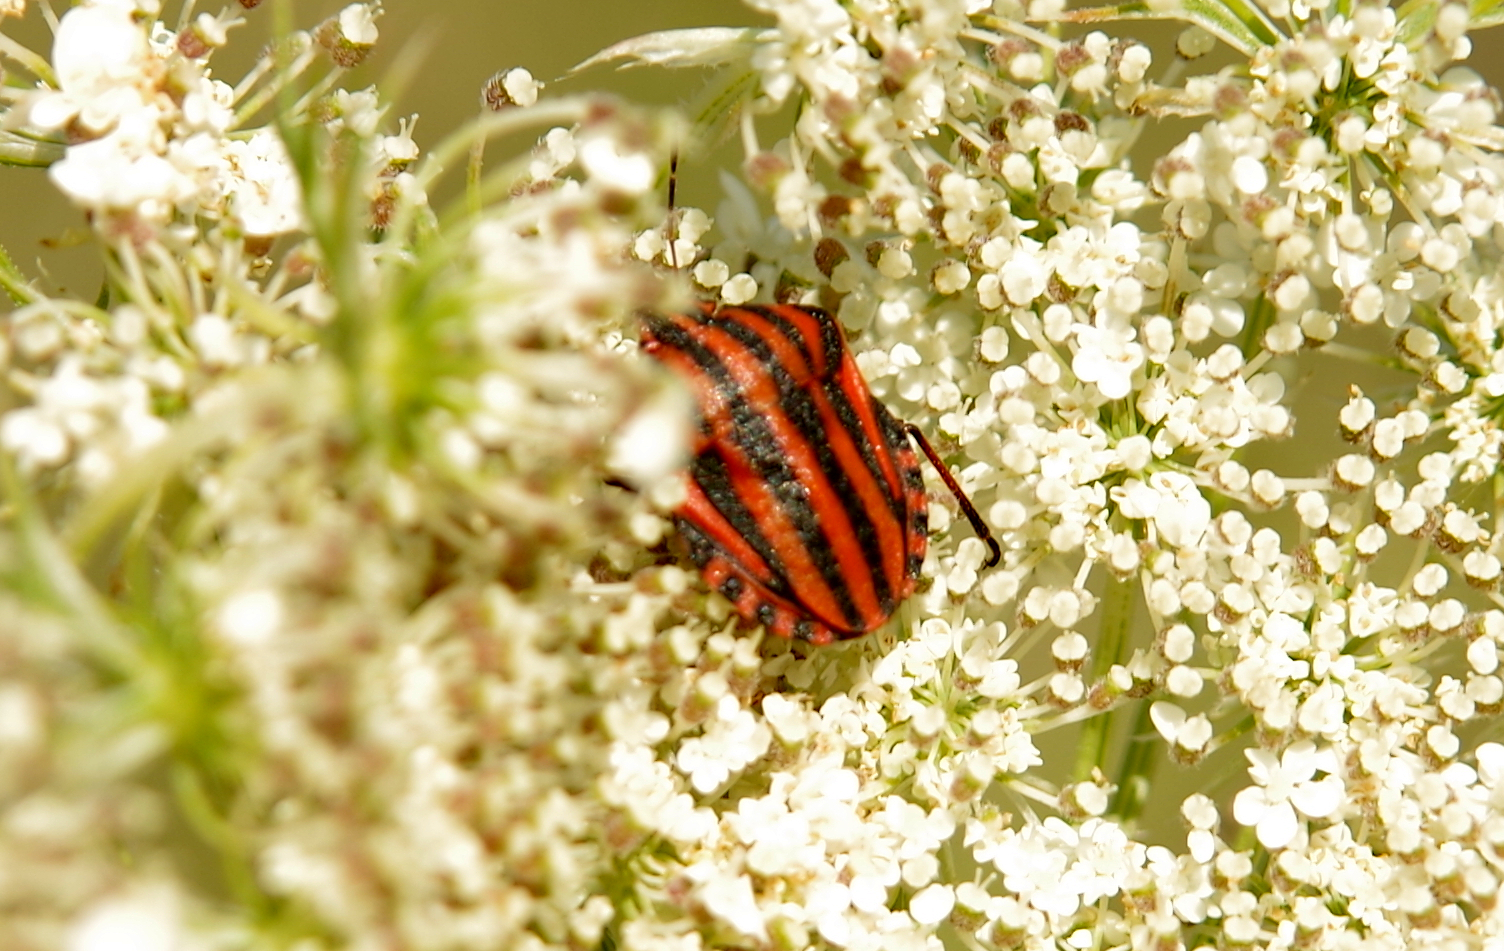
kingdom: Animalia
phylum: Arthropoda
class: Insecta
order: Hemiptera
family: Pentatomidae
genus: Graphosoma
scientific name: Graphosoma italicum
